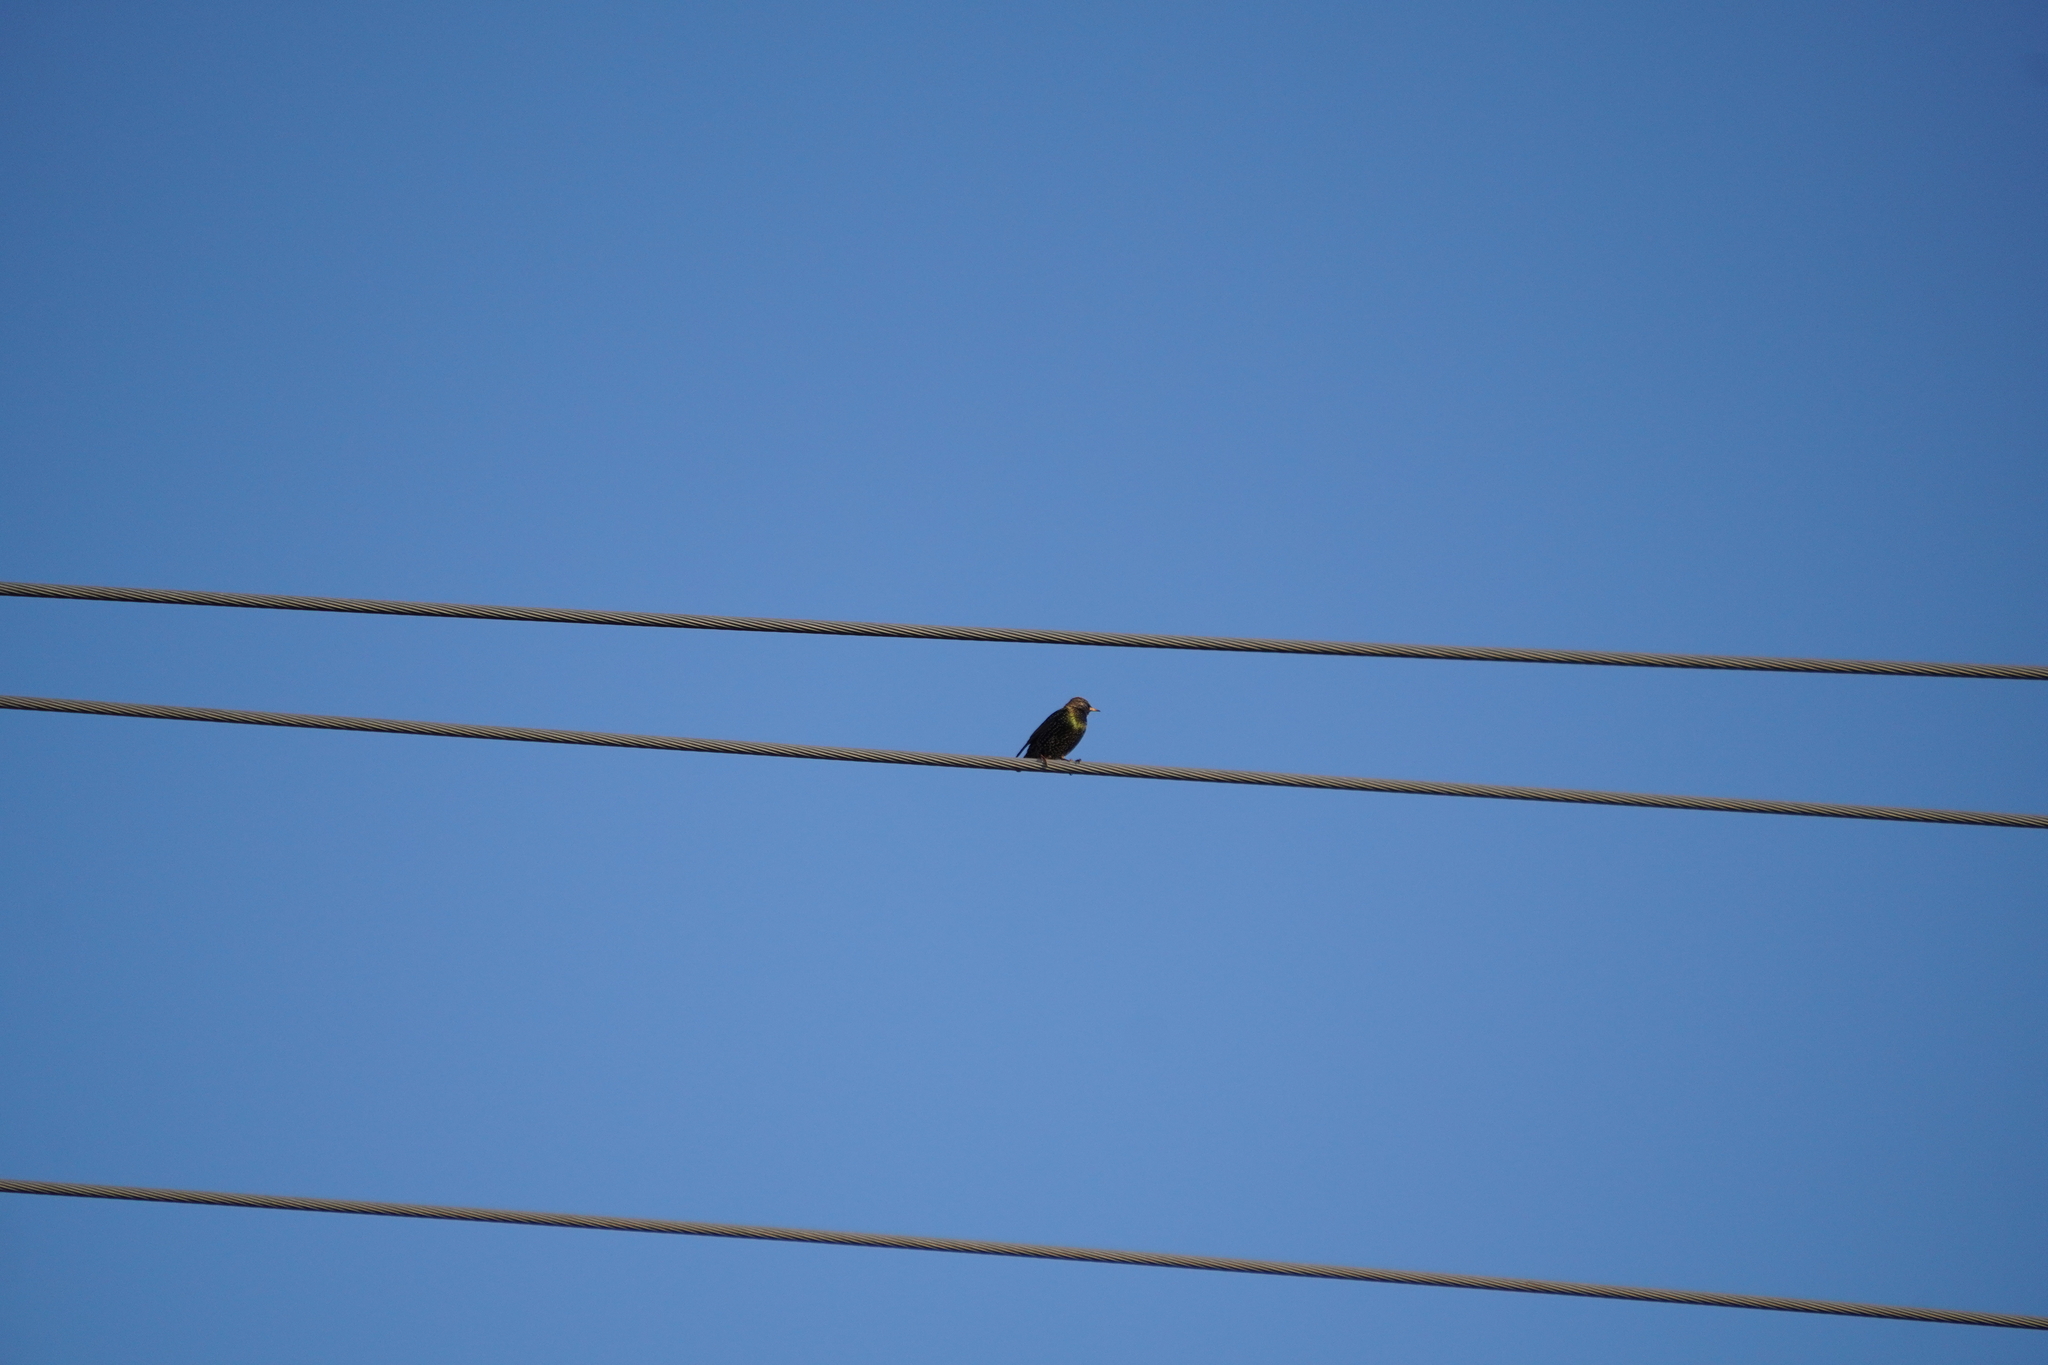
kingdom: Animalia
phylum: Chordata
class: Aves
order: Passeriformes
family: Sturnidae
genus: Sturnus
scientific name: Sturnus vulgaris
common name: Common starling
